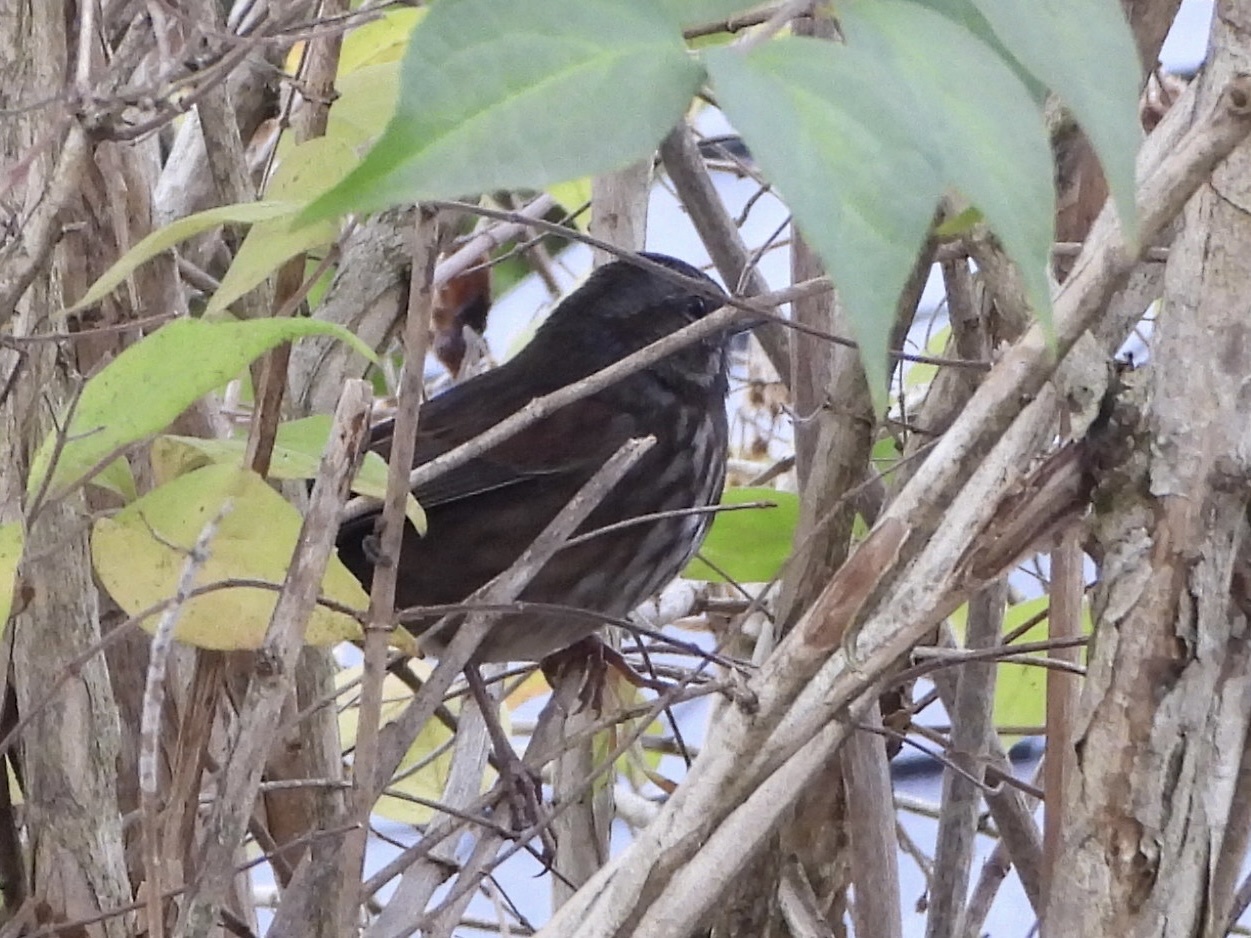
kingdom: Animalia
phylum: Chordata
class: Aves
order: Passeriformes
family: Passerellidae
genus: Melospiza
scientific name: Melospiza melodia
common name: Song sparrow
